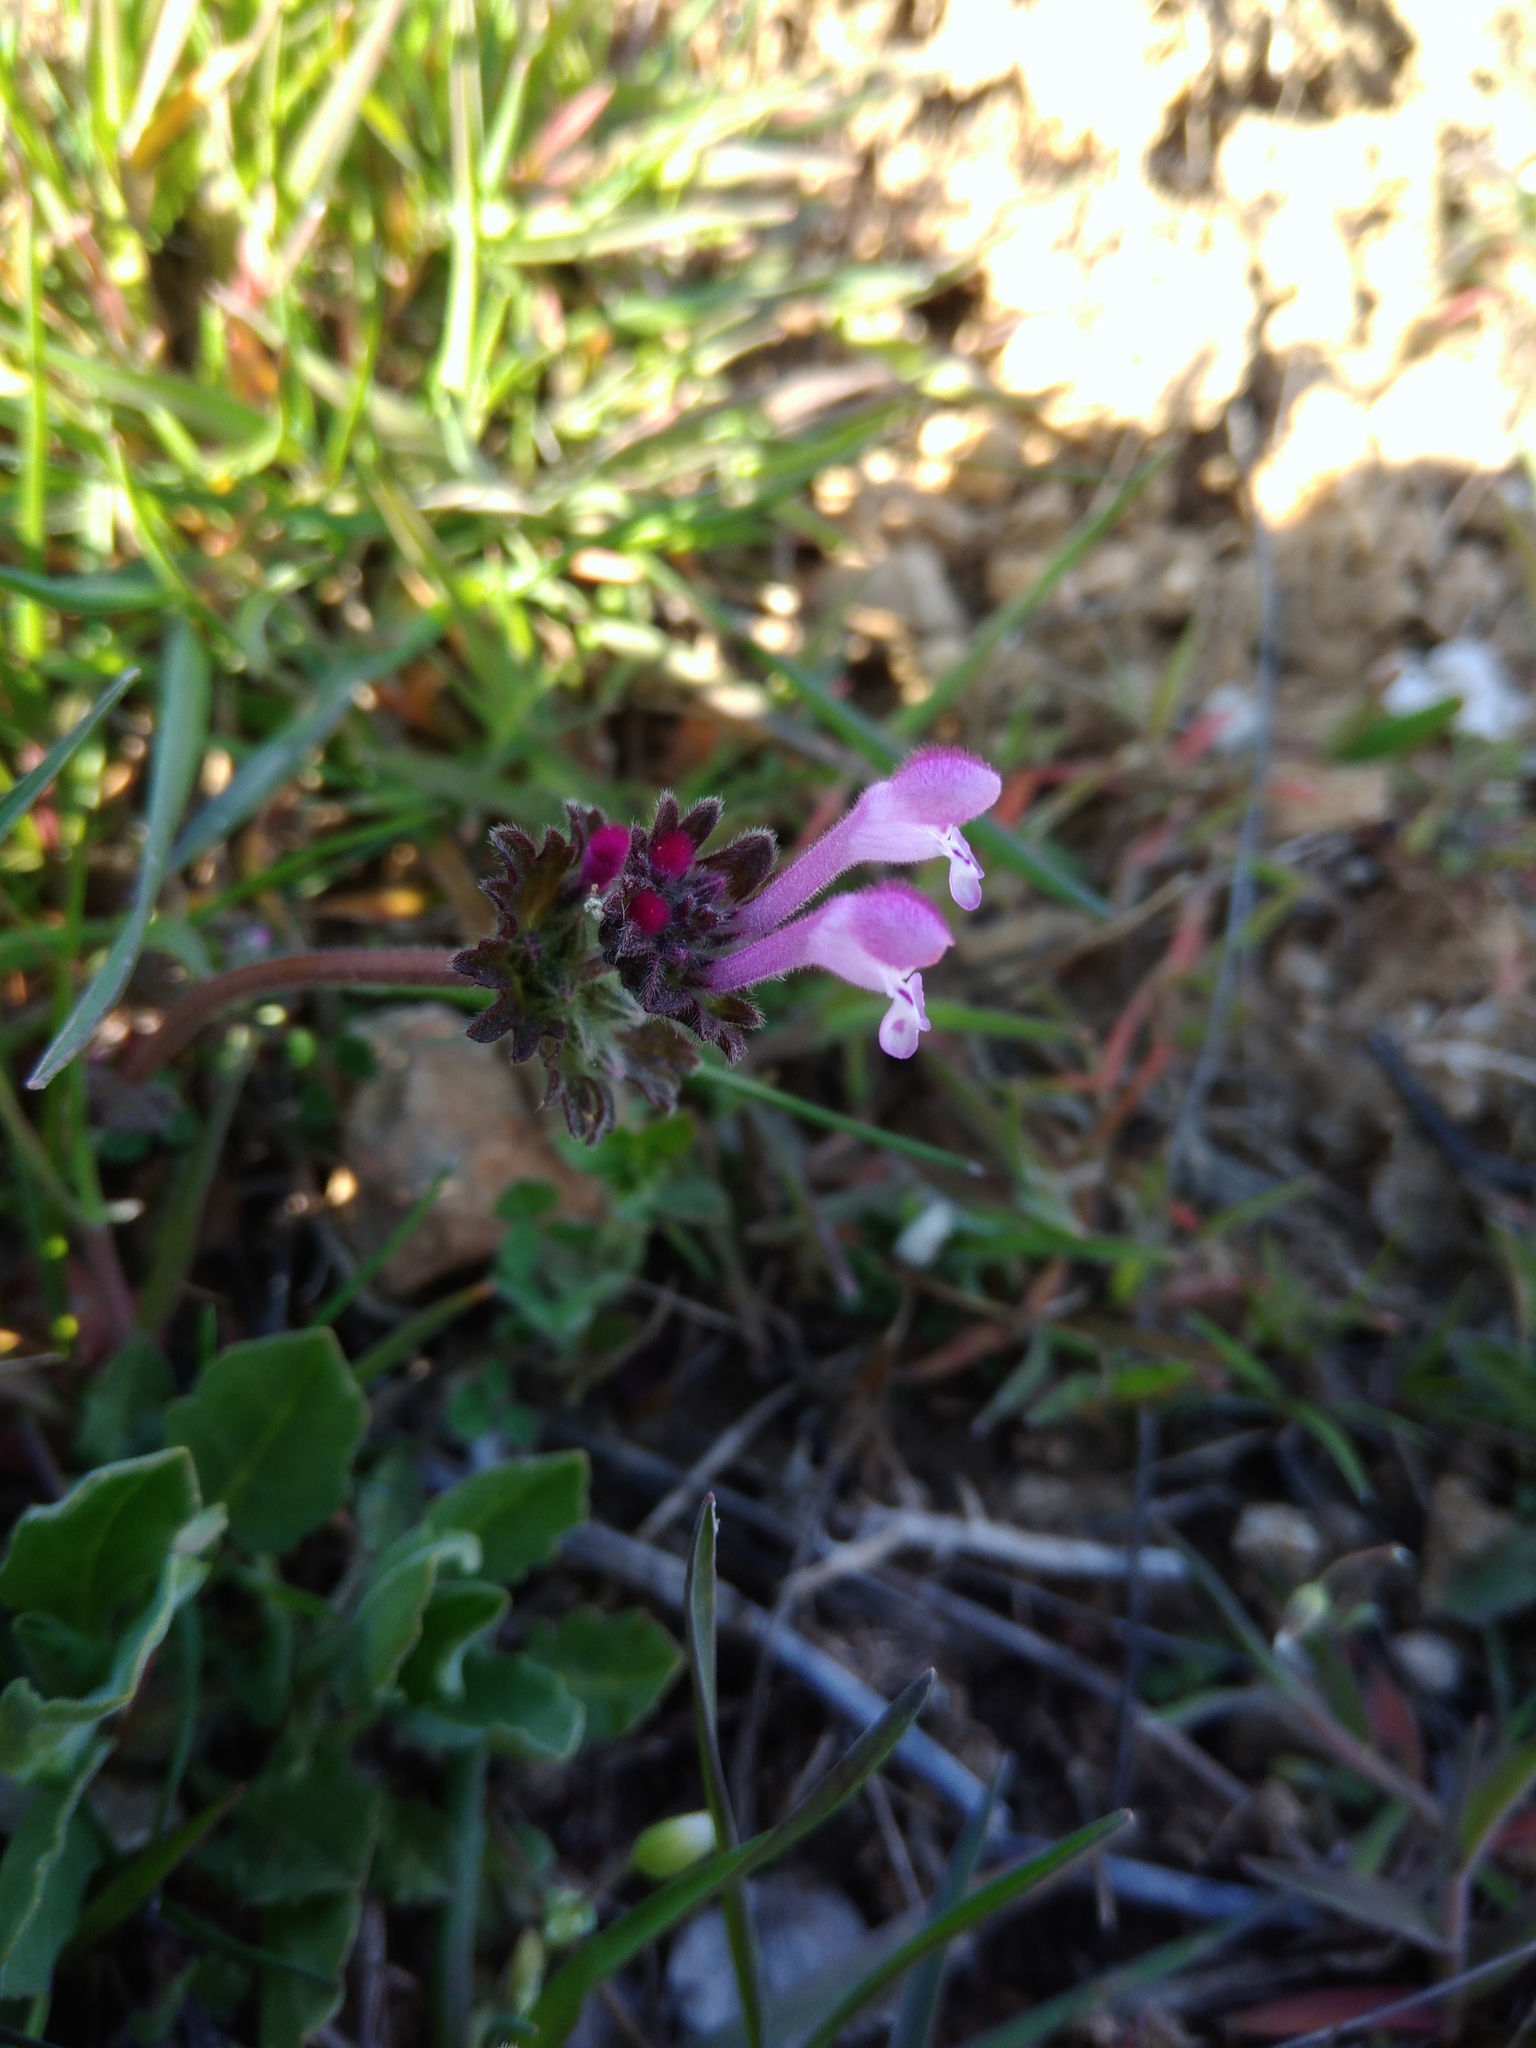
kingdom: Plantae
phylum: Tracheophyta
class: Magnoliopsida
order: Lamiales
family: Lamiaceae
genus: Lamium
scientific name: Lamium amplexicaule
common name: Henbit dead-nettle
